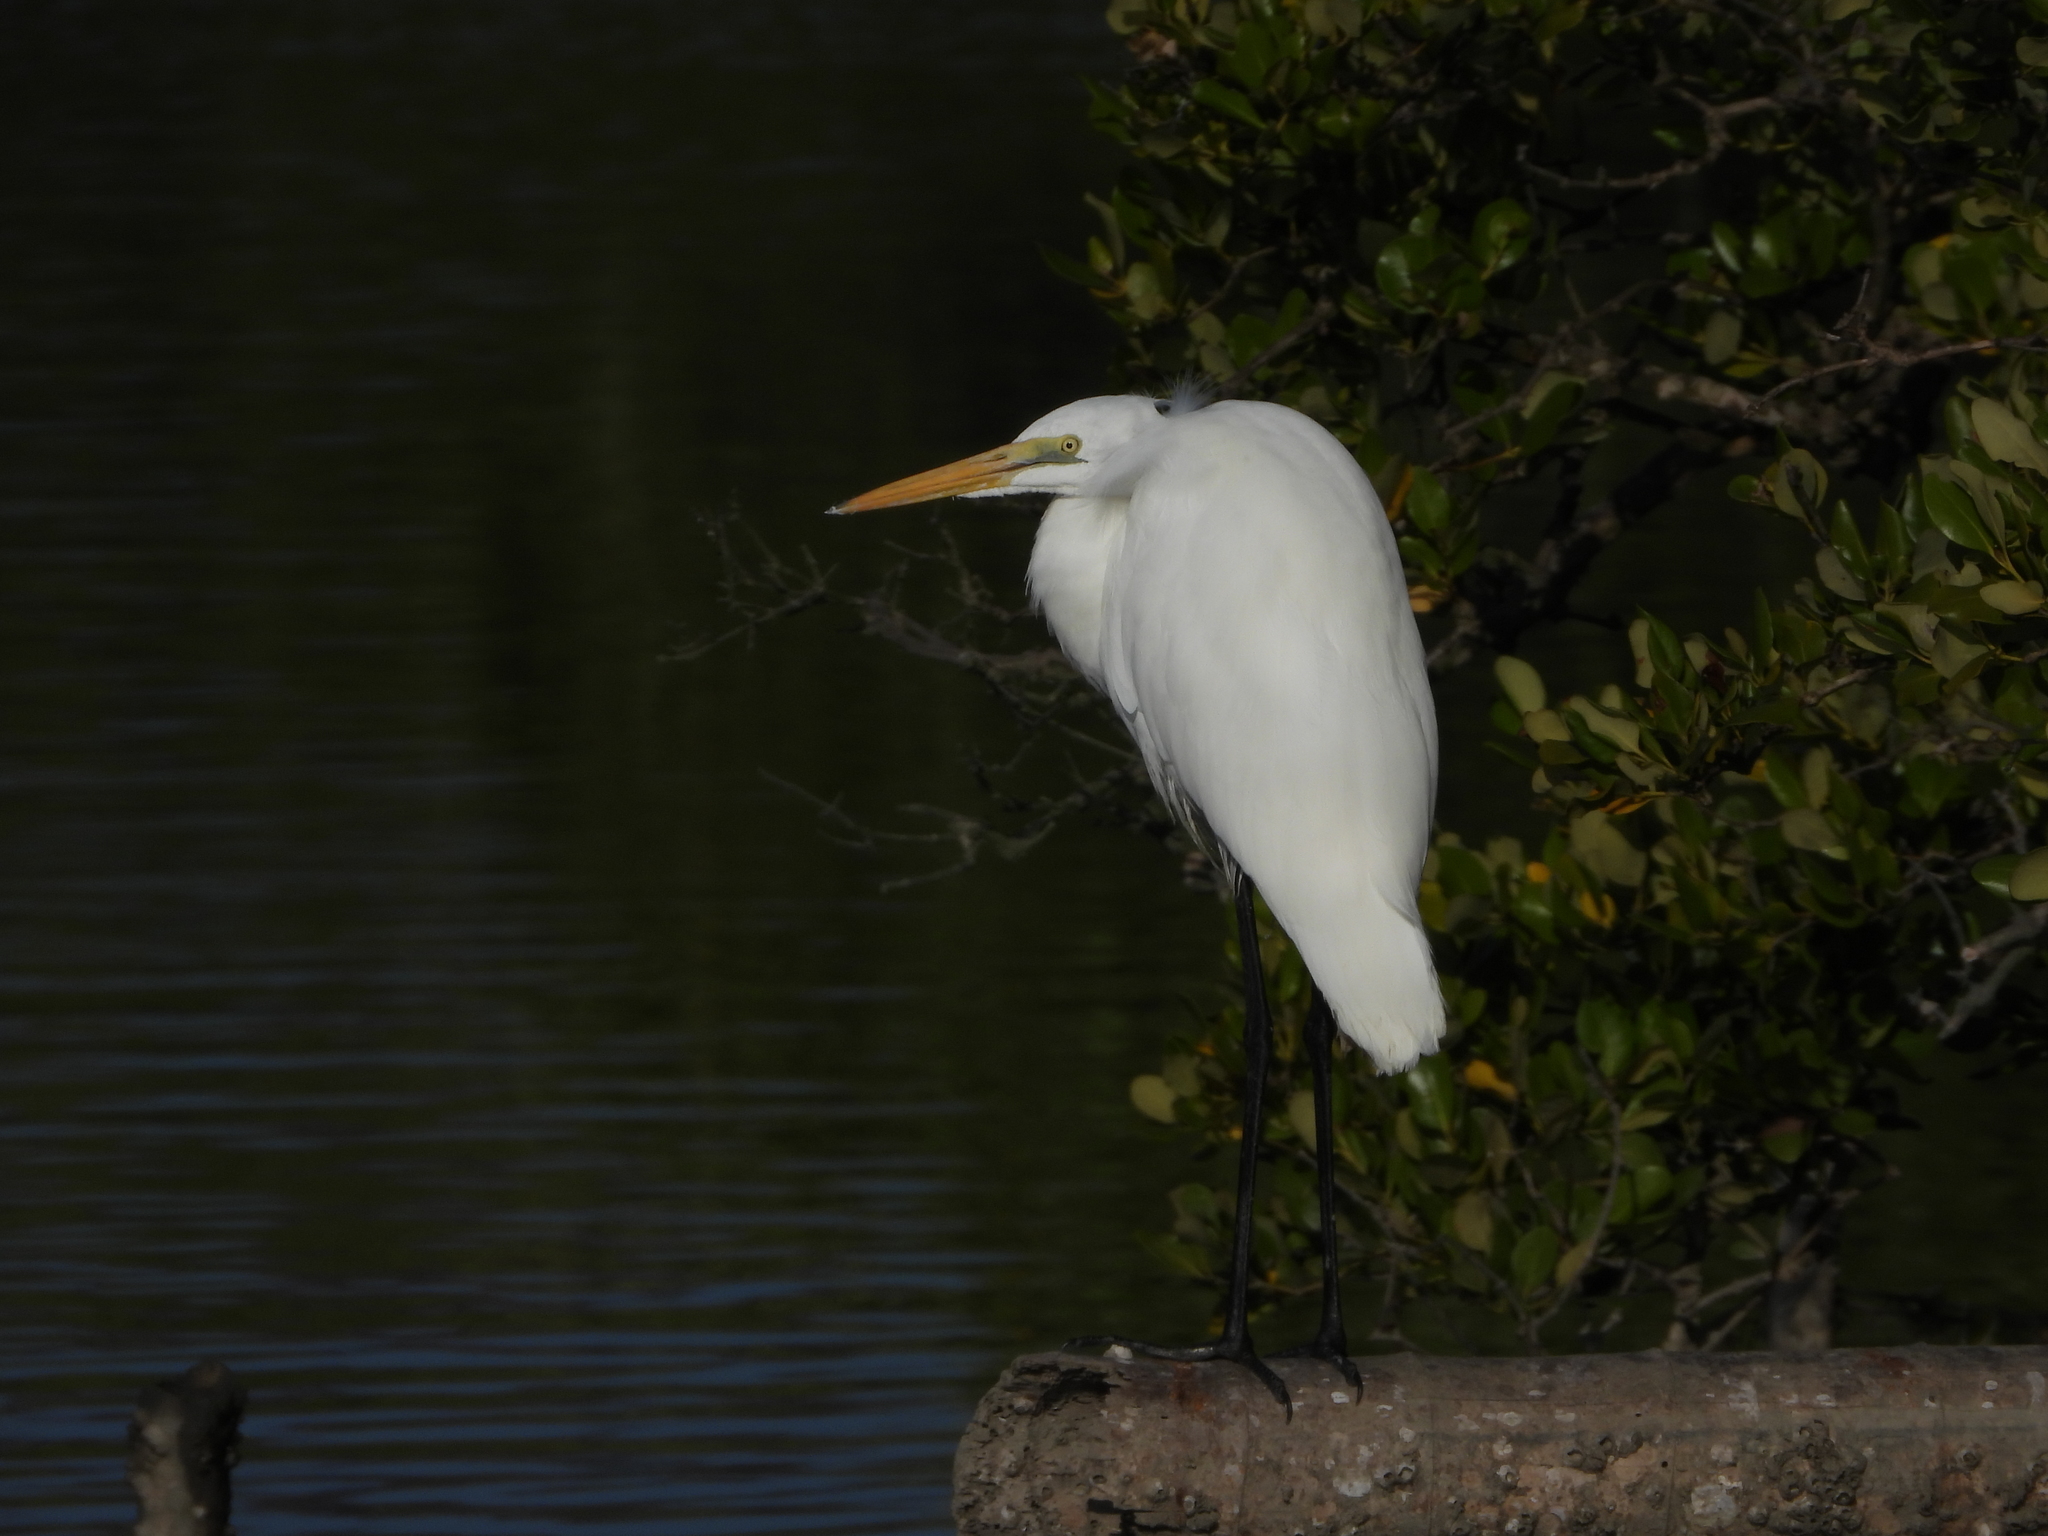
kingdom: Animalia
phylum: Chordata
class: Aves
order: Pelecaniformes
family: Ardeidae
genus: Ardea
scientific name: Ardea alba
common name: Great egret
